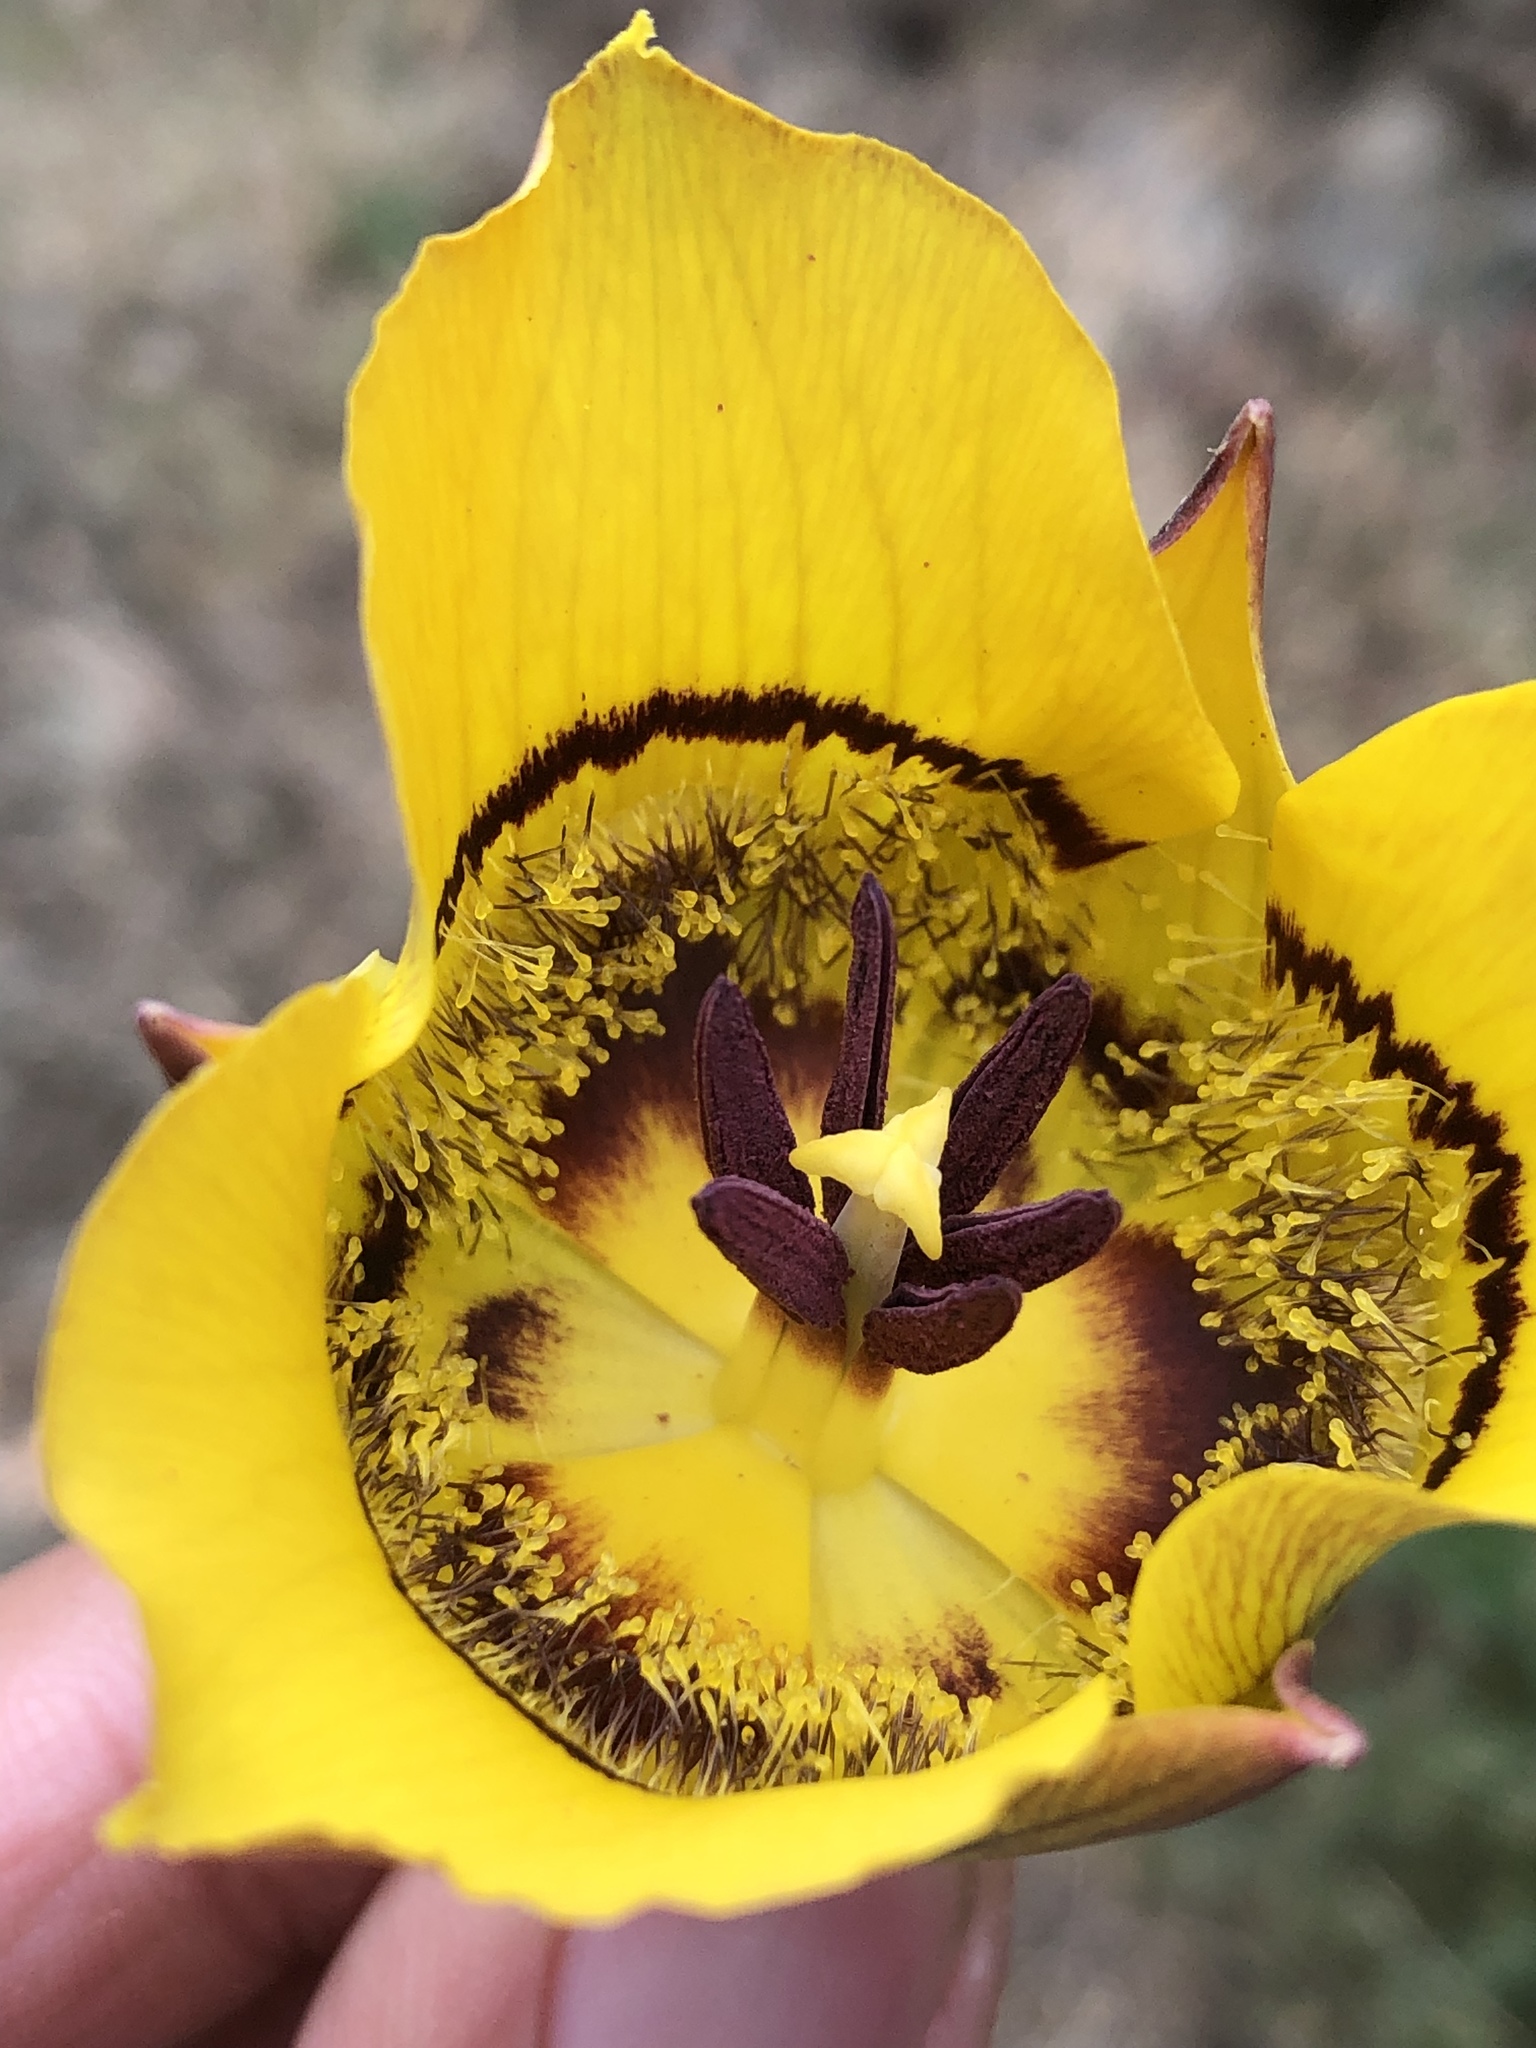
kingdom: Plantae
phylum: Tracheophyta
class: Liliopsida
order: Liliales
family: Liliaceae
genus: Calochortus
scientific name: Calochortus clavatus
